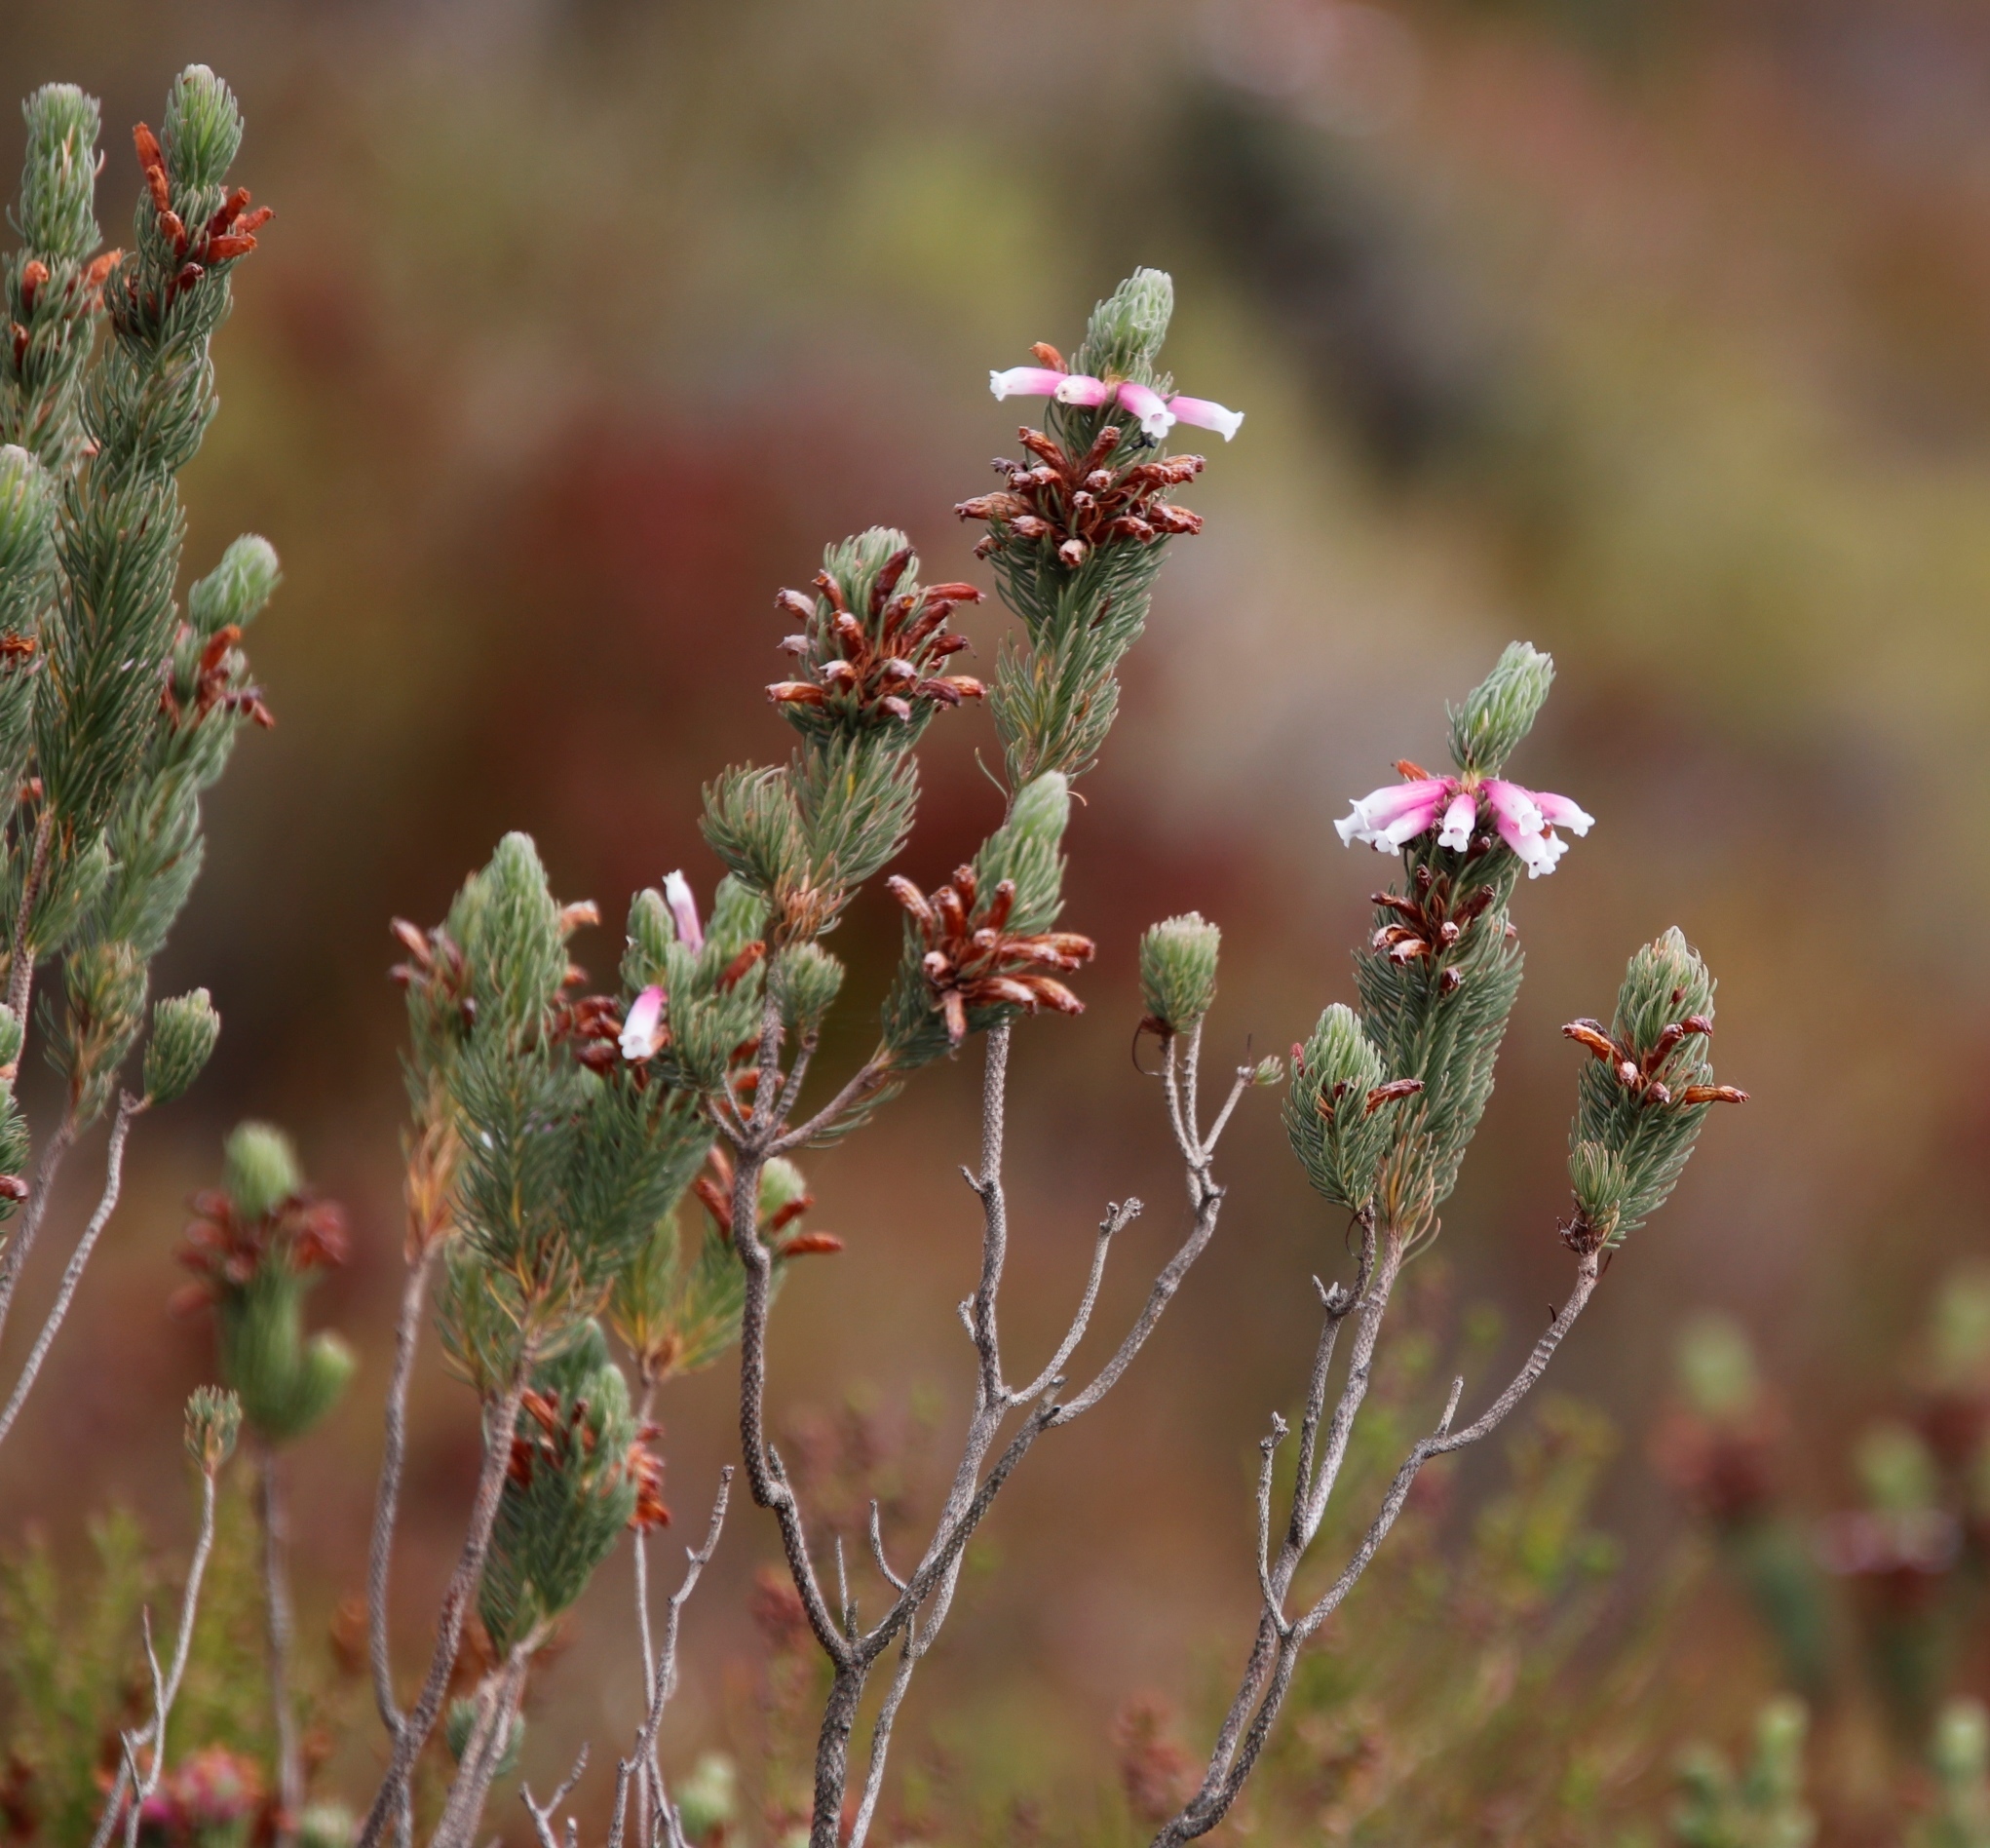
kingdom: Plantae
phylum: Tracheophyta
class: Magnoliopsida
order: Ericales
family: Ericaceae
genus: Erica
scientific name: Erica viscaria
